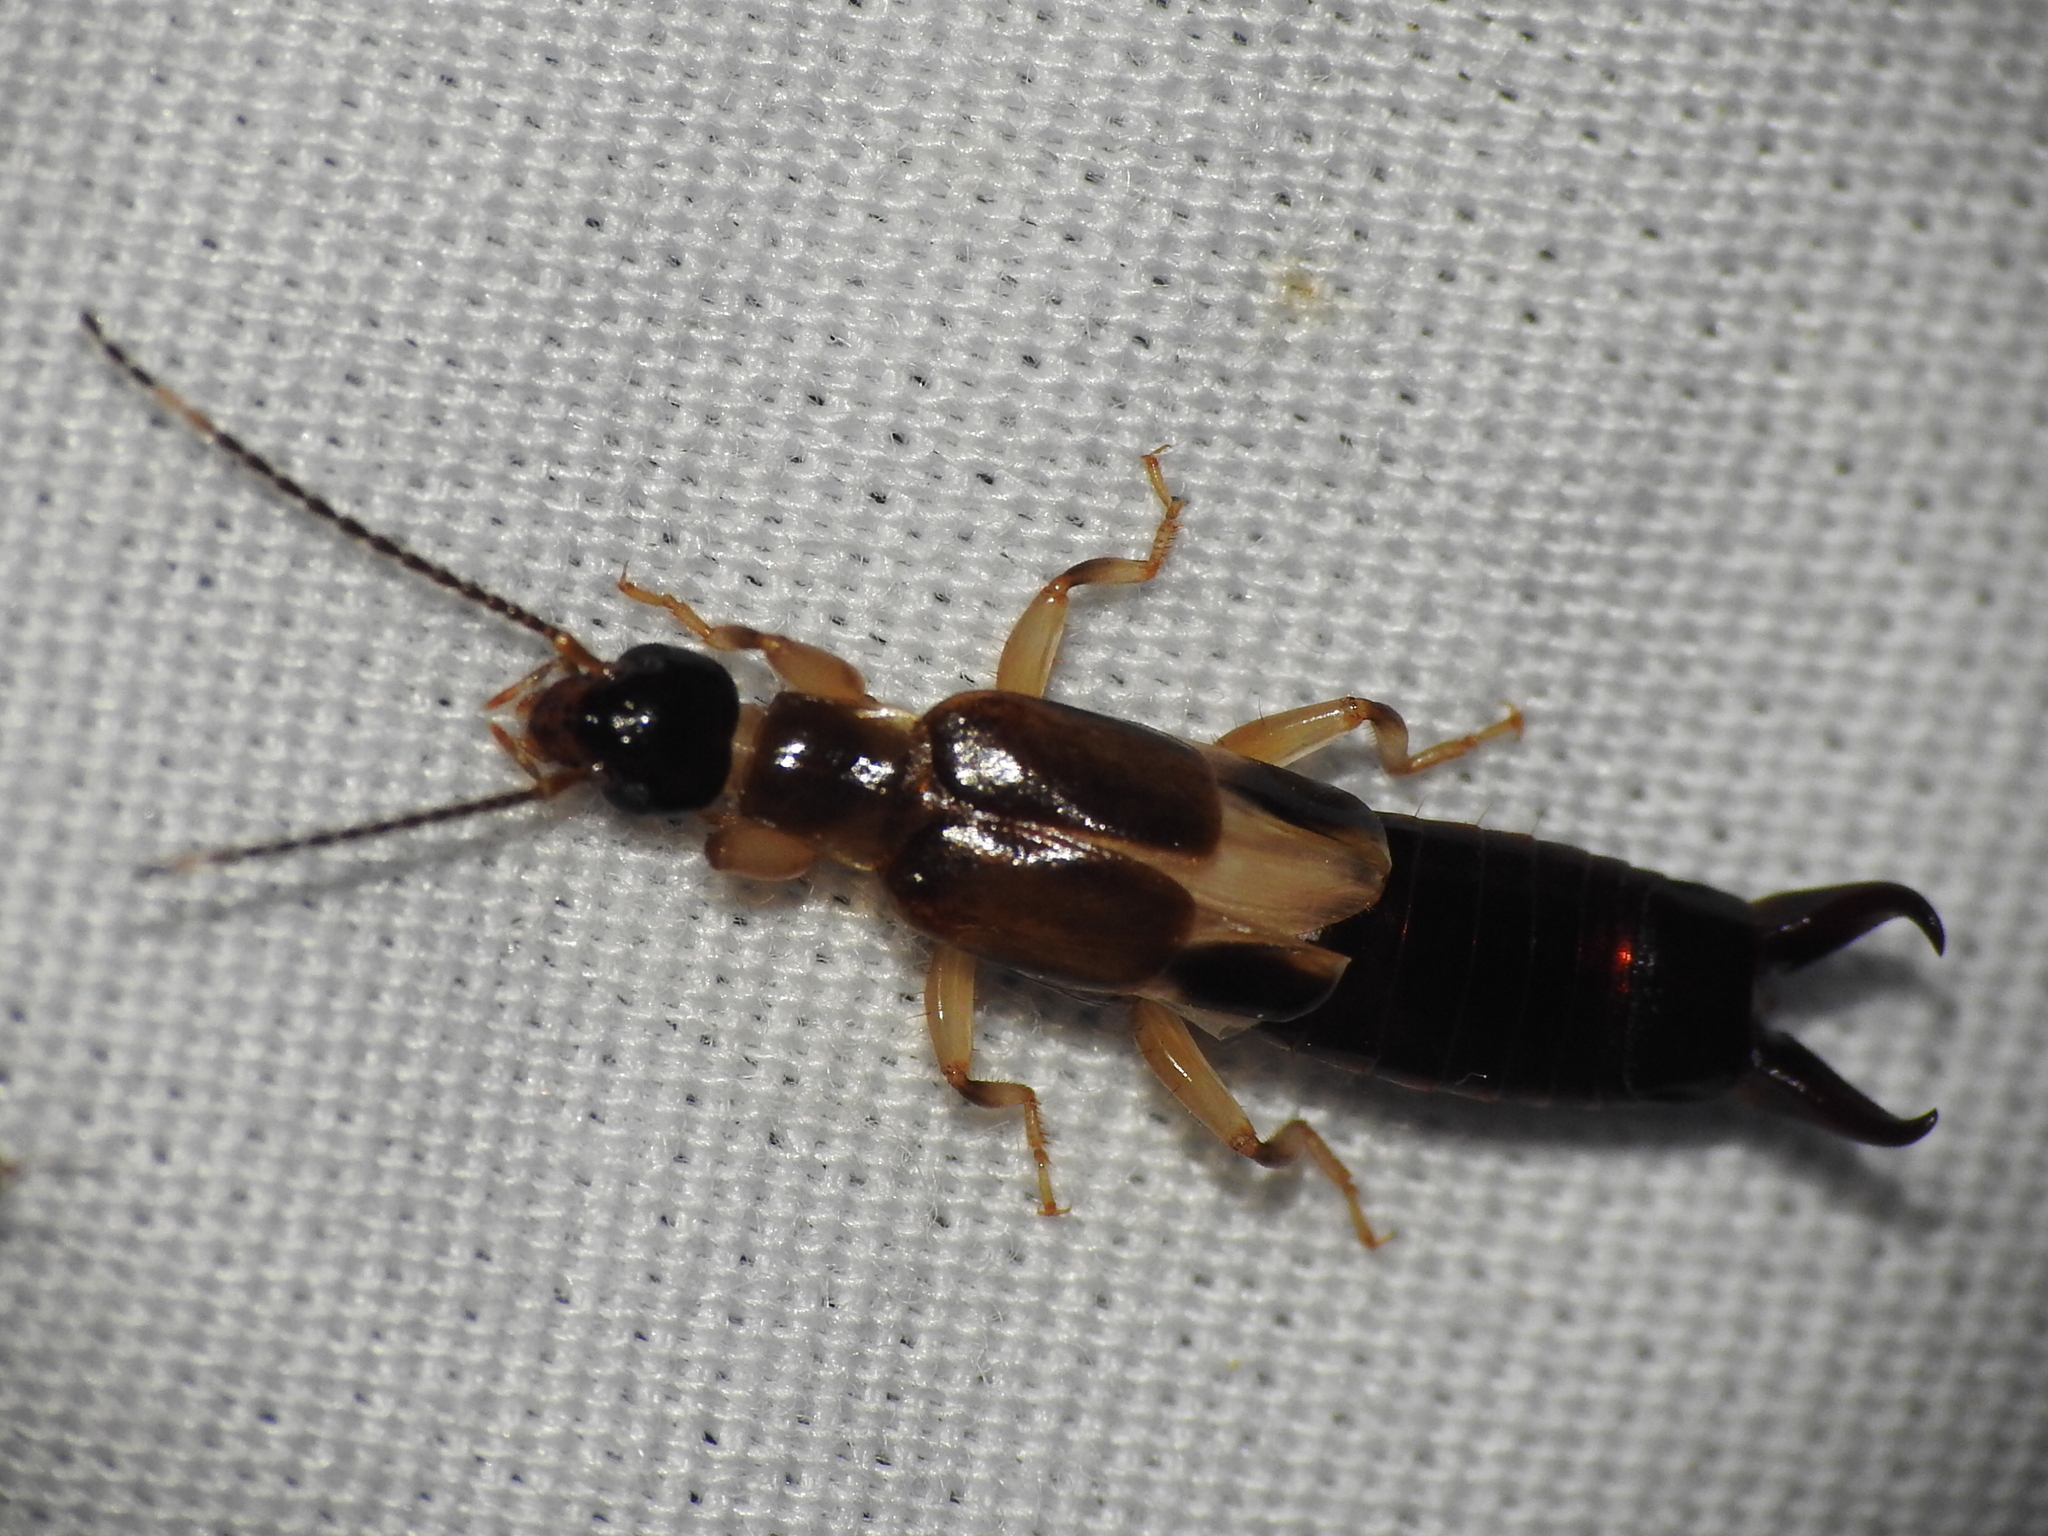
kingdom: Animalia
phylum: Arthropoda
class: Insecta
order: Dermaptera
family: Anisolabididae
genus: Euborellia
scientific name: Euborellia cincticollis
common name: African earwig
